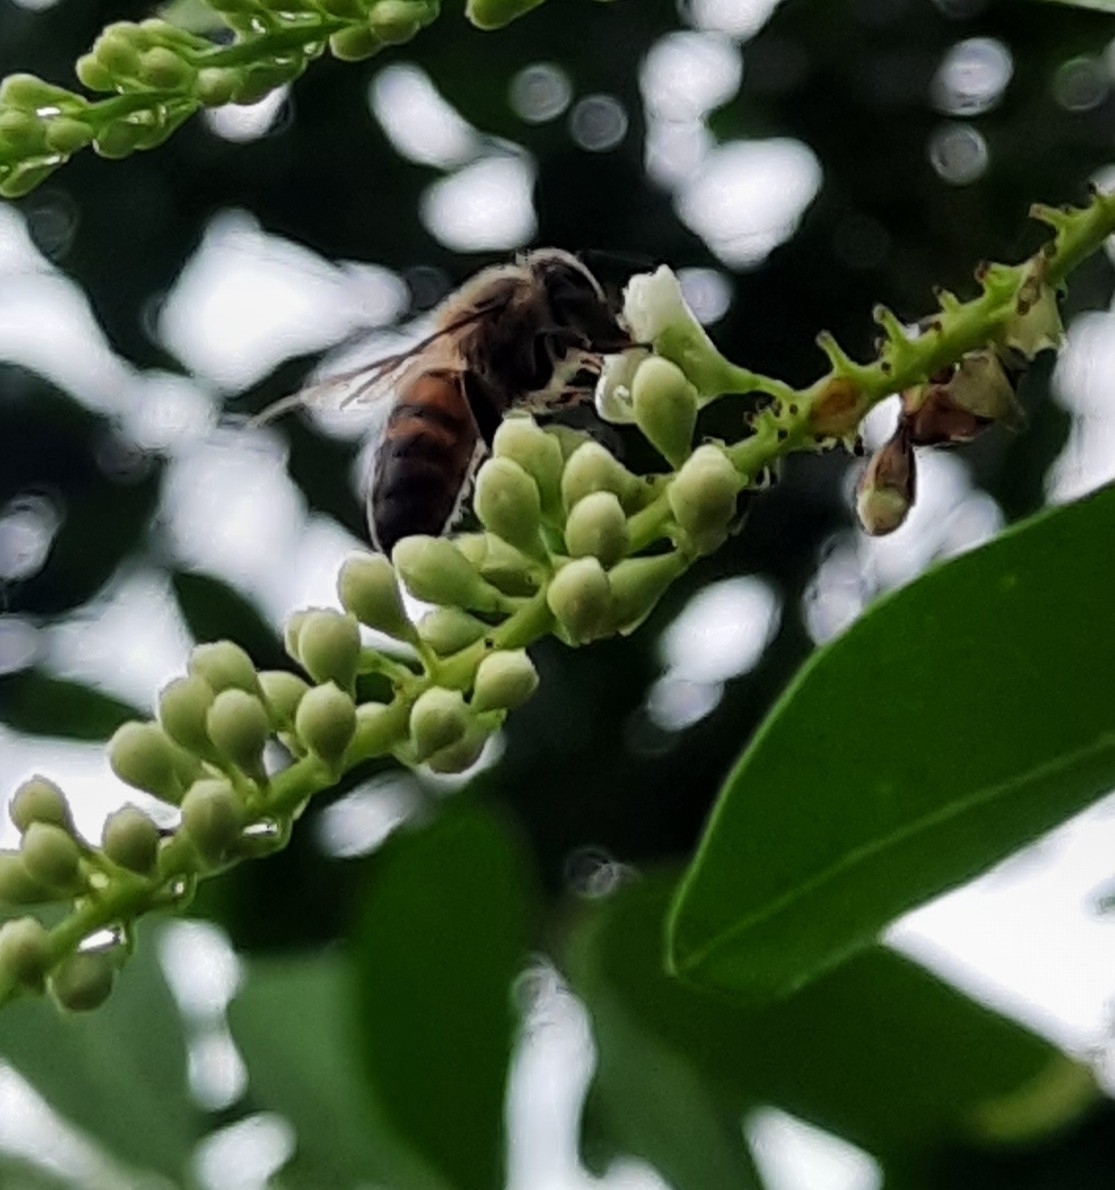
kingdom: Animalia
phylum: Arthropoda
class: Insecta
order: Hymenoptera
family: Apidae
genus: Apis
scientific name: Apis mellifera
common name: Honey bee
